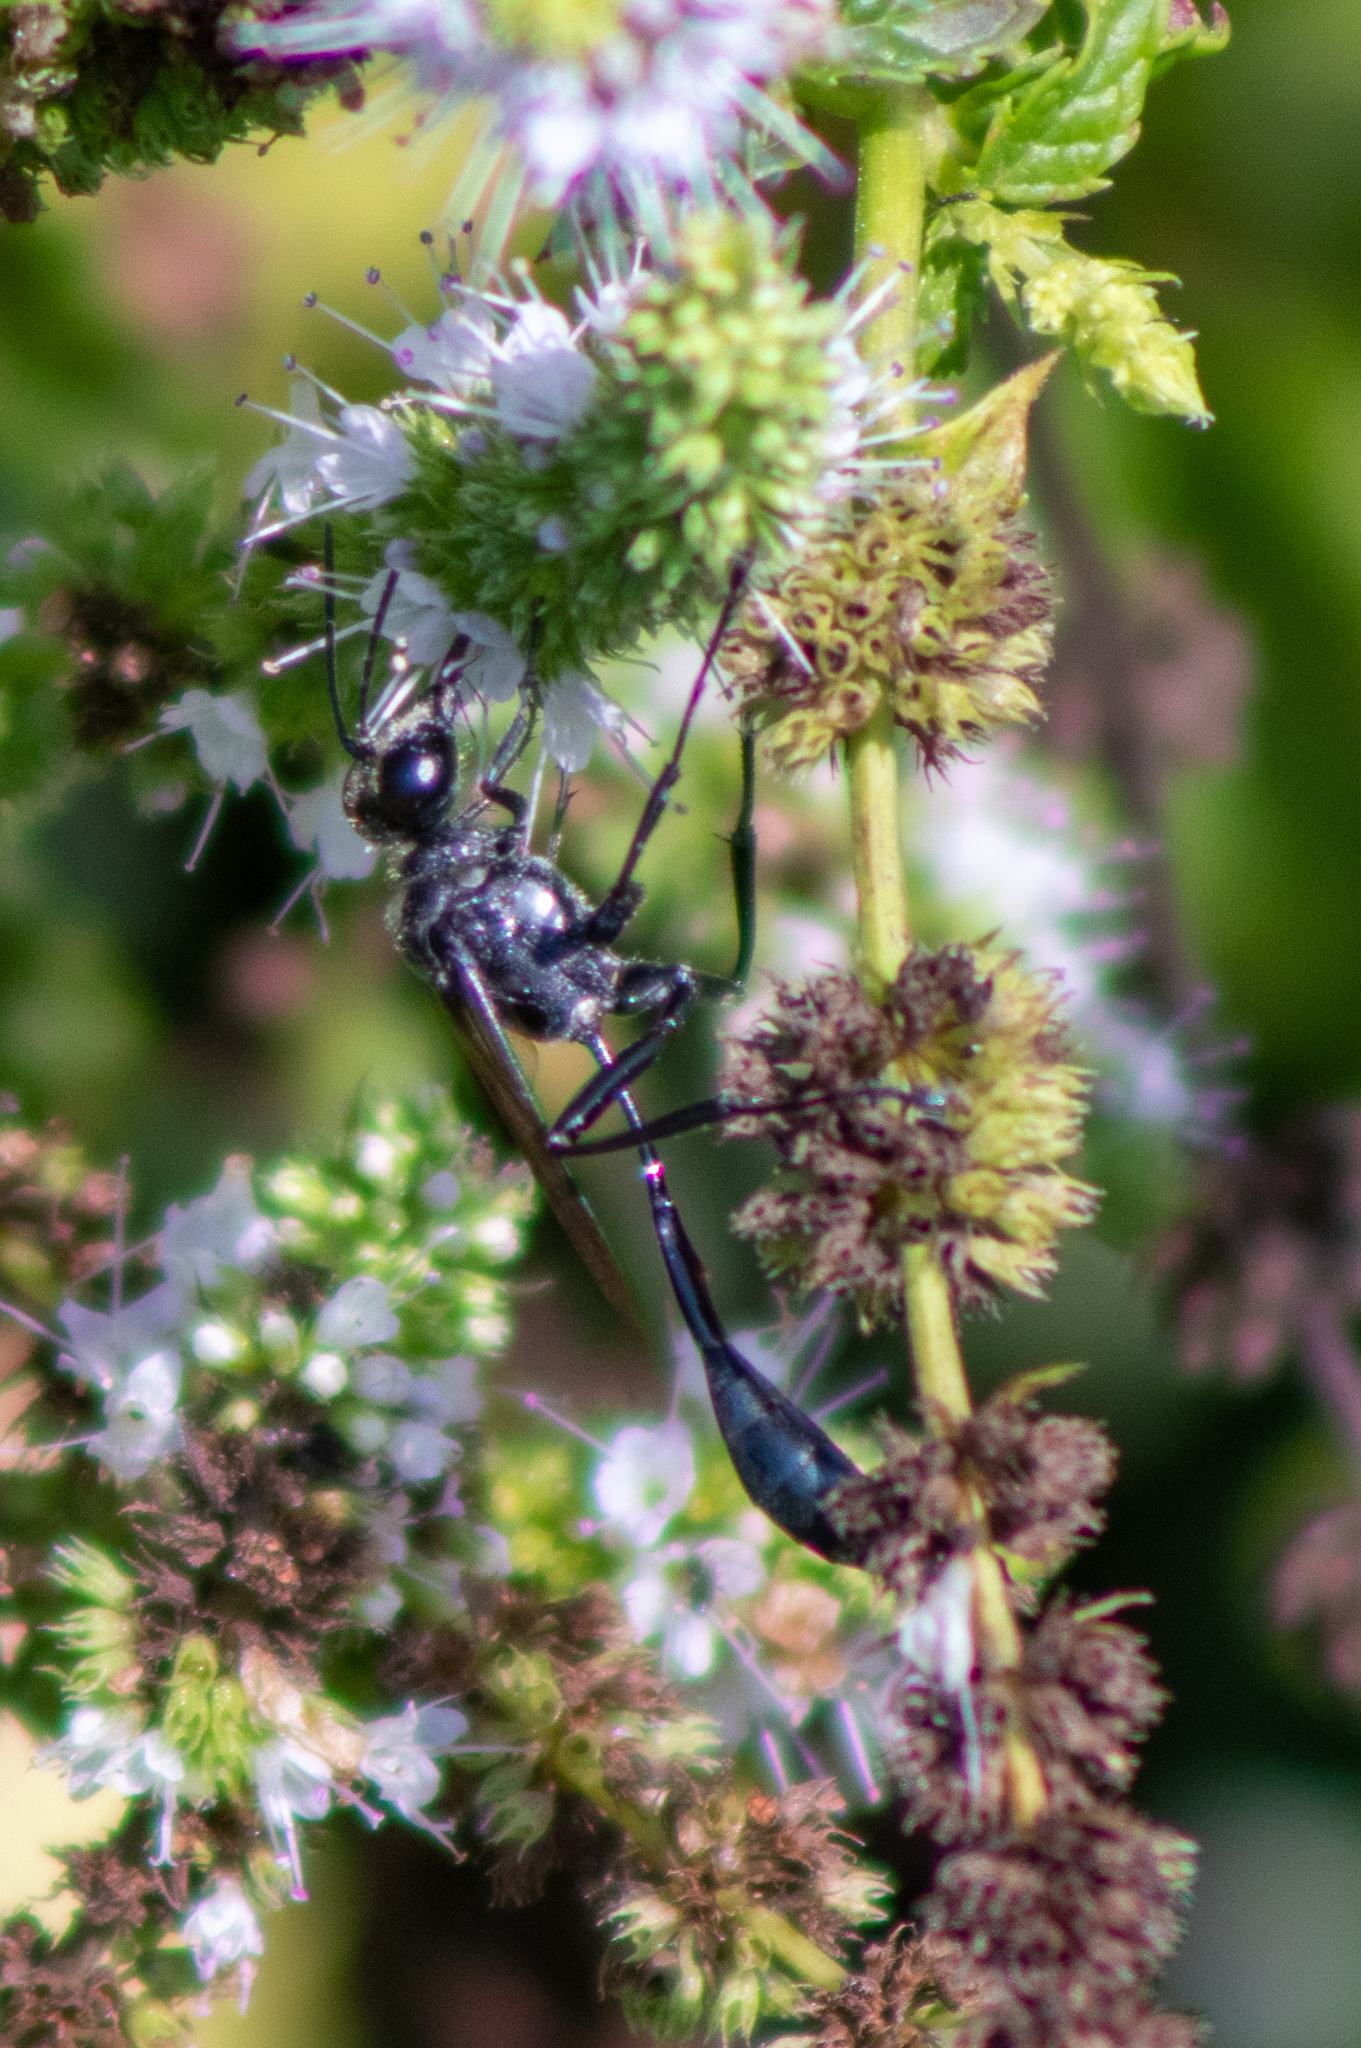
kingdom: Animalia
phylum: Arthropoda
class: Insecta
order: Hymenoptera
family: Sphecidae
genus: Eremnophila
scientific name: Eremnophila aureonotata
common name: Gold-marked thread-waisted wasp
